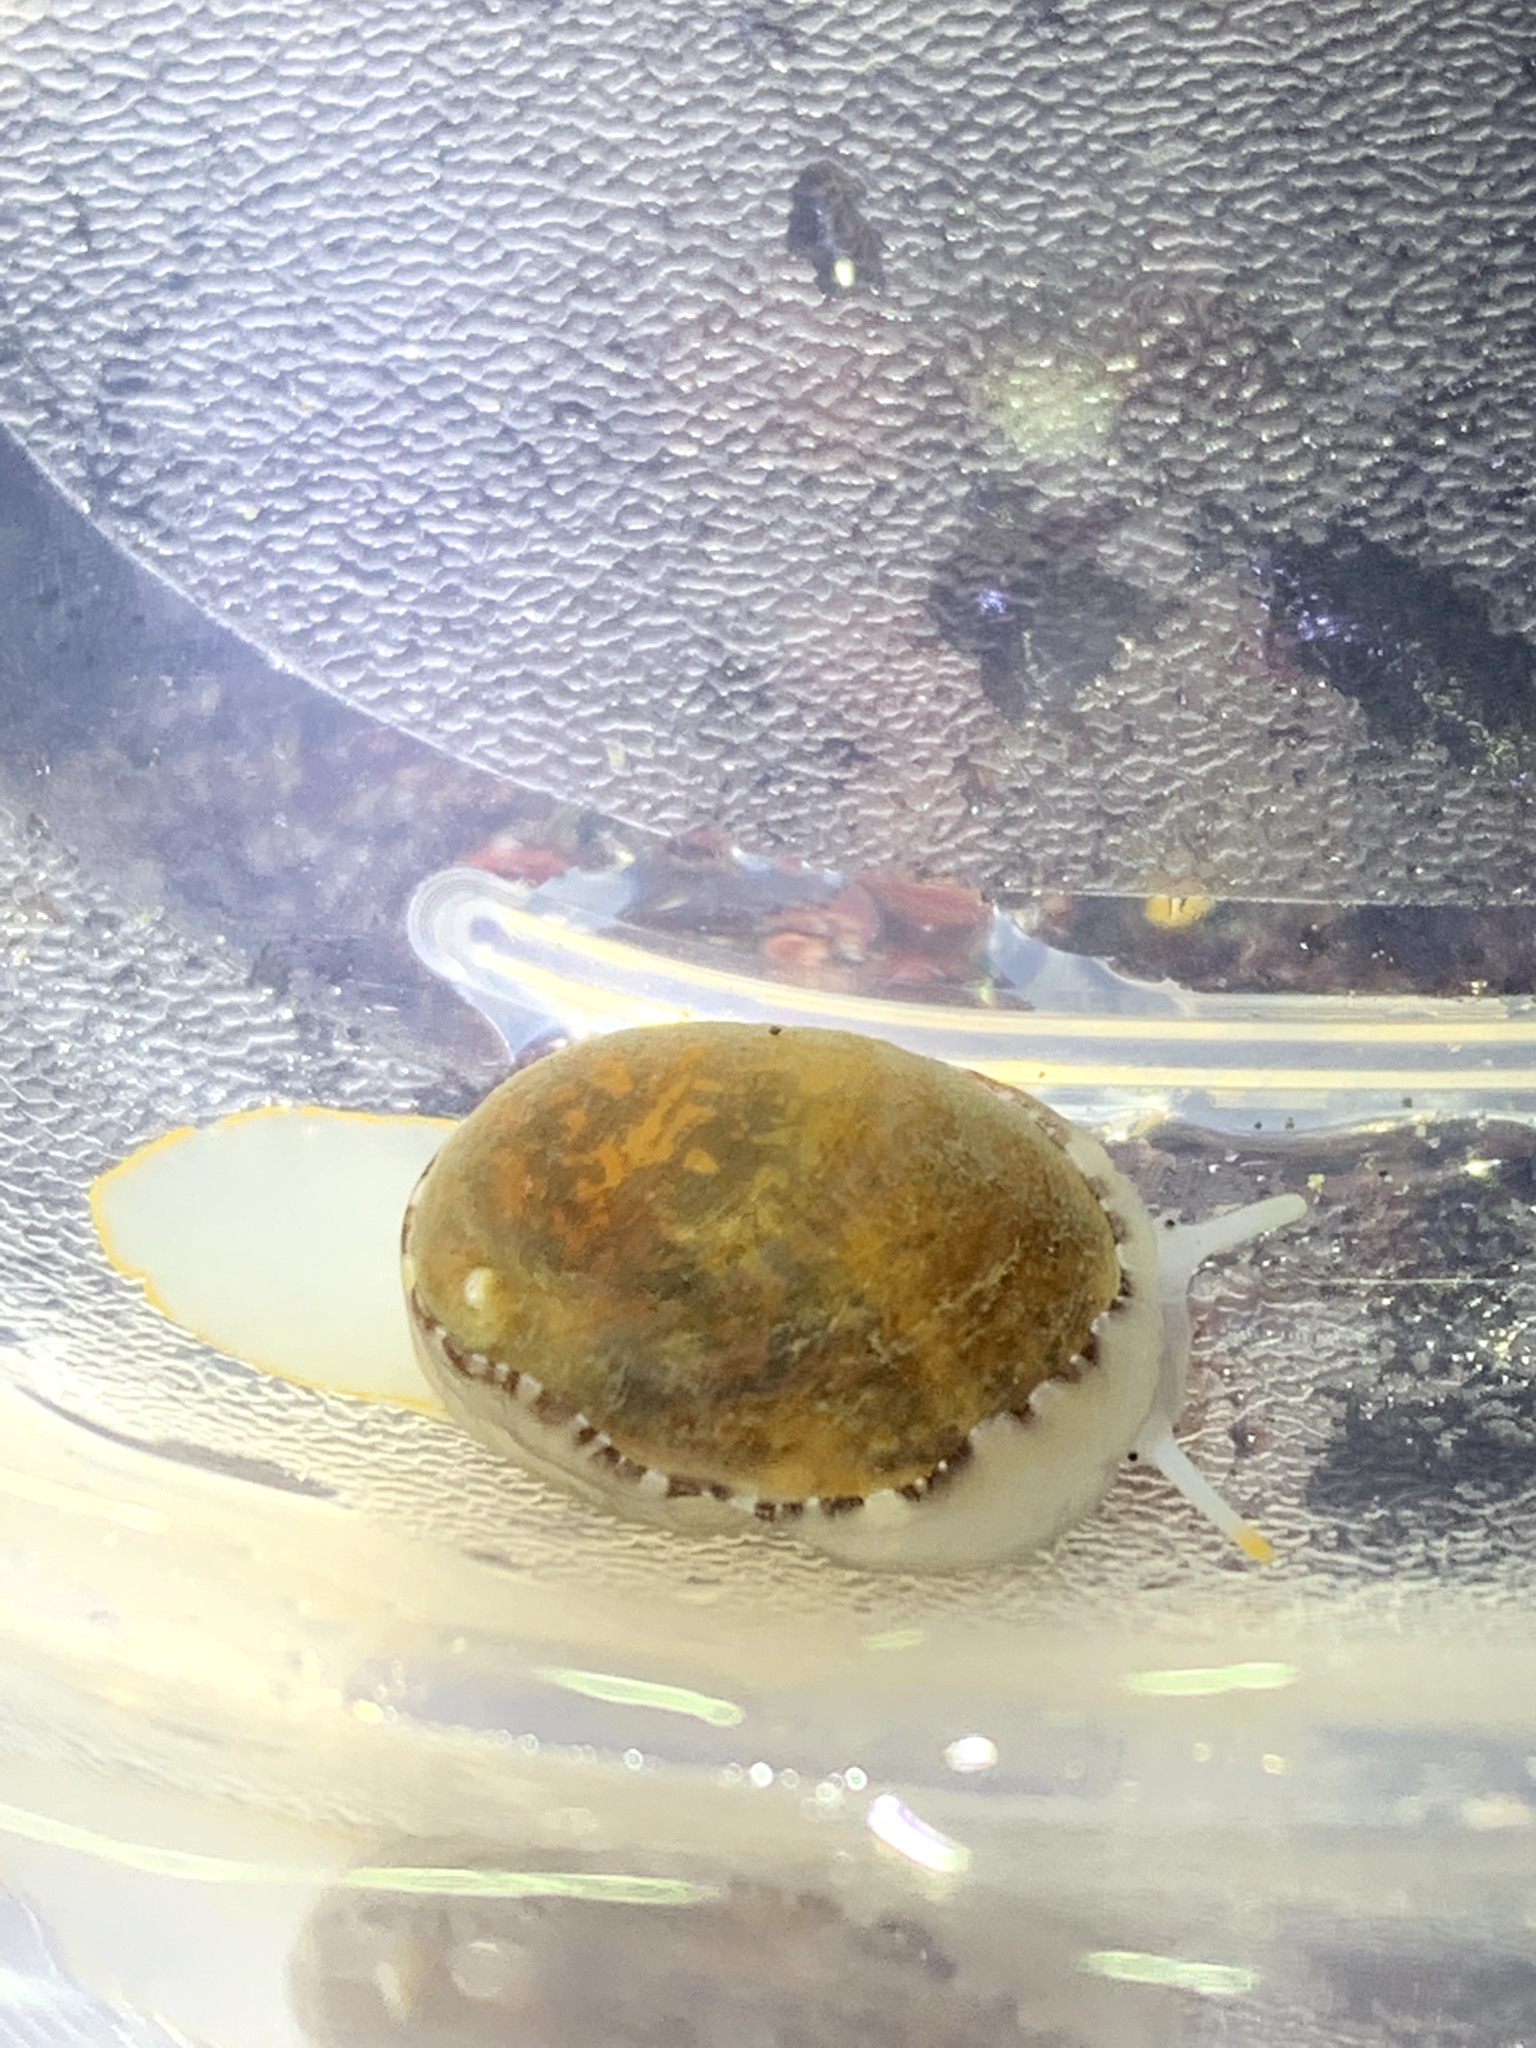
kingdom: Animalia
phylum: Mollusca
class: Gastropoda
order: Littorinimorpha
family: Velutinidae
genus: Limneria
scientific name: Limneria prolongata
